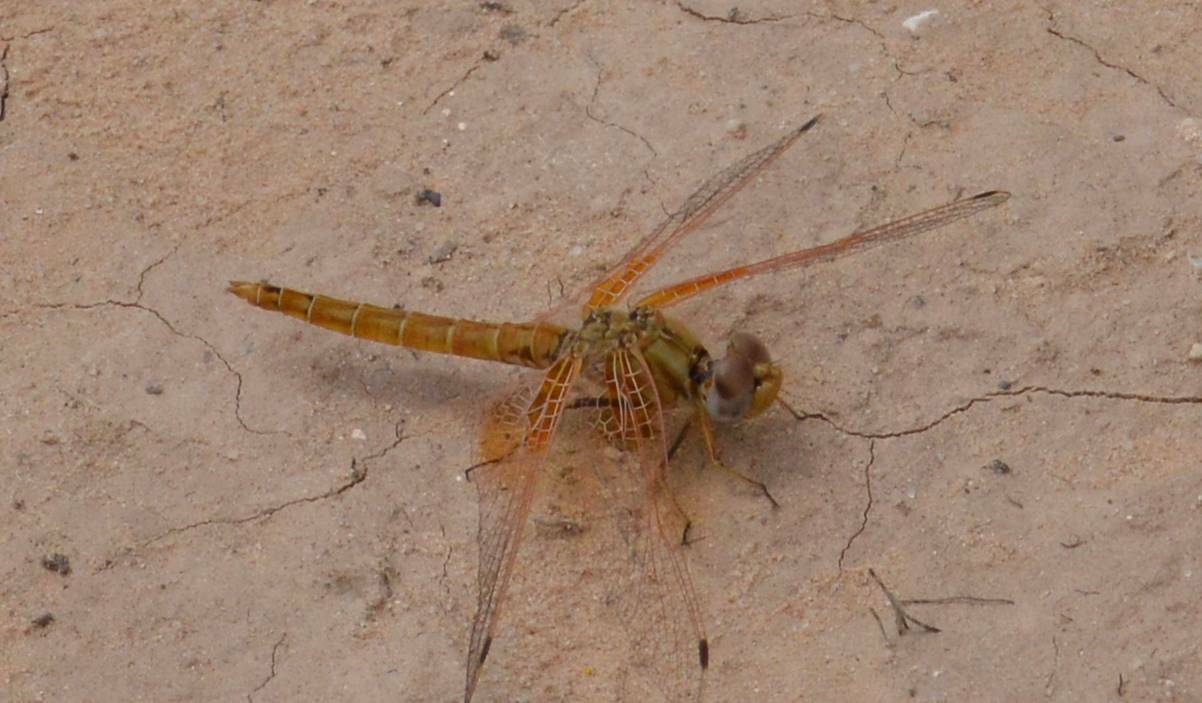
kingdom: Animalia
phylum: Arthropoda
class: Insecta
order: Odonata
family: Libellulidae
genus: Trithemis
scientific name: Trithemis kirbyi
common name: Kirby's dropwing
